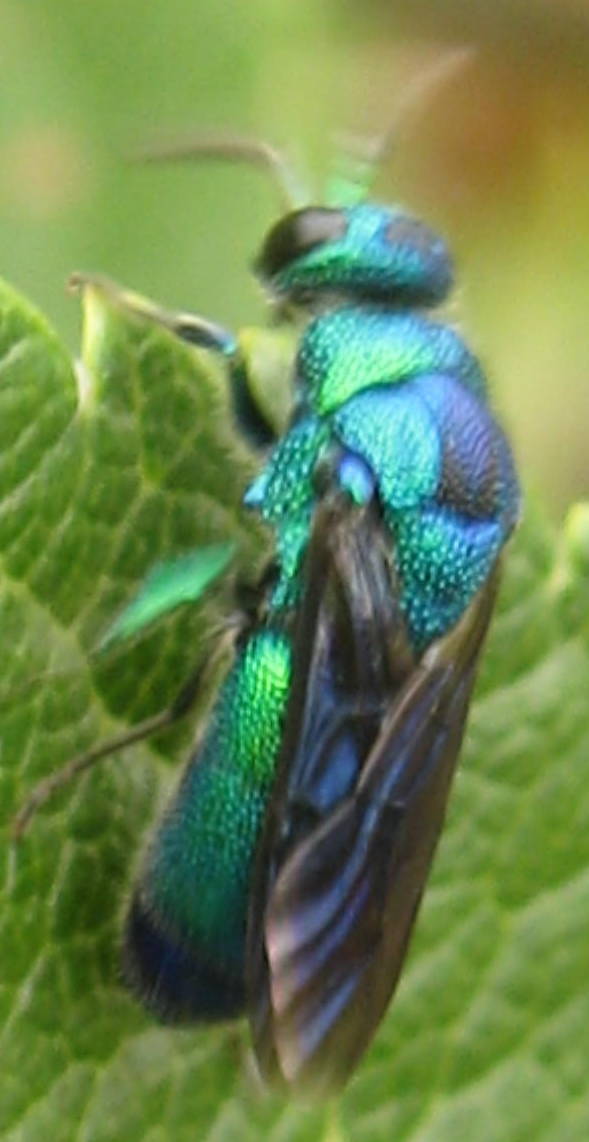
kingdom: Animalia
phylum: Arthropoda
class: Insecta
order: Hymenoptera
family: Chrysididae
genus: Chrysis
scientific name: Chrysis angolensis
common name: Cuckoo wasp
